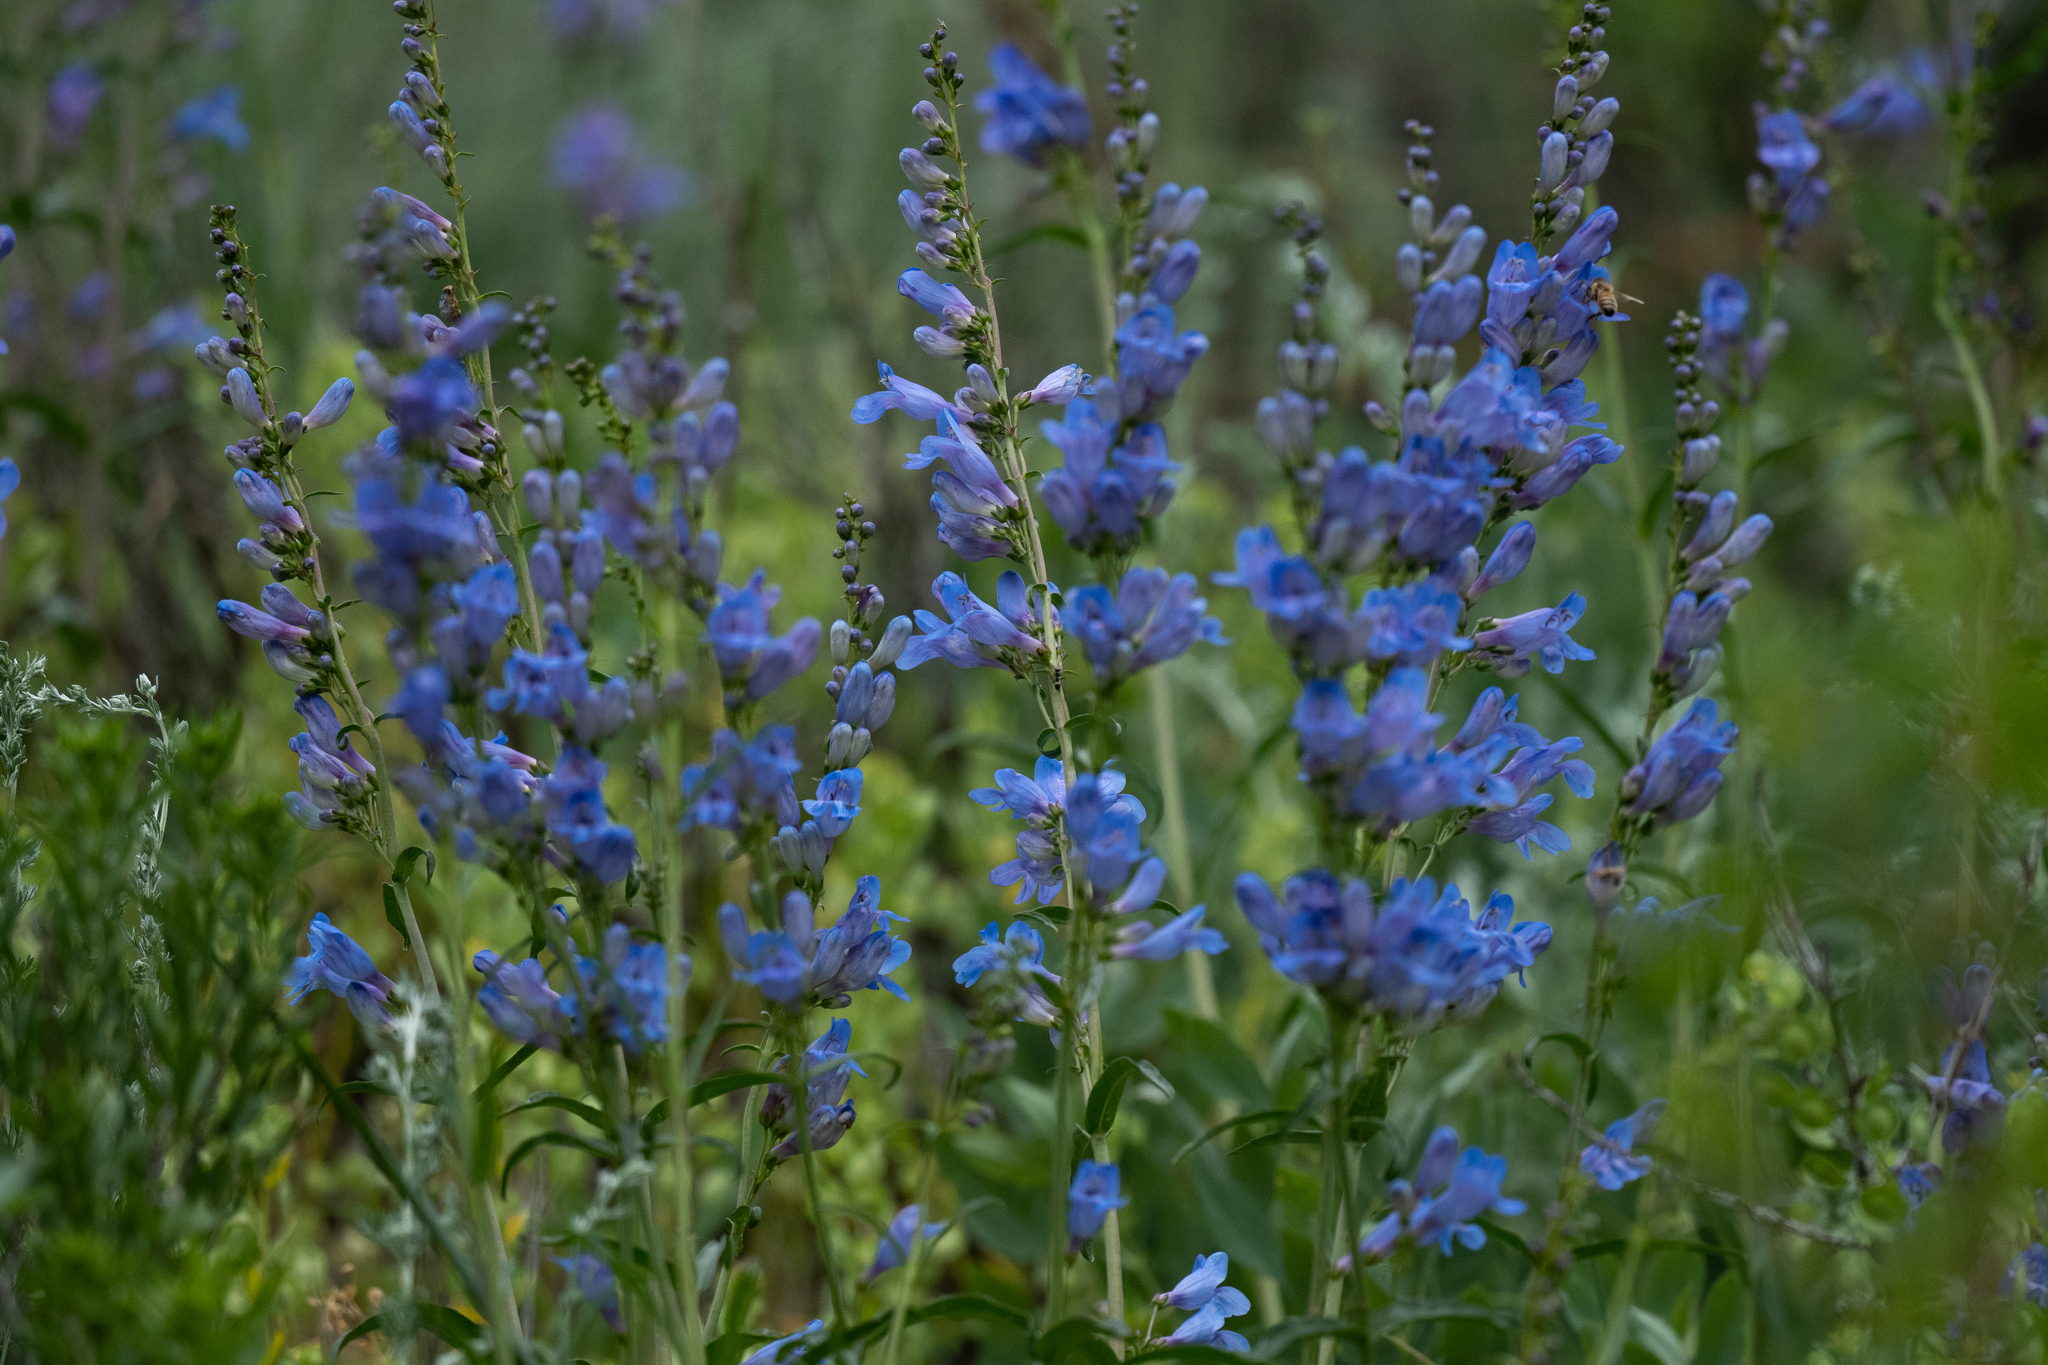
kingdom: Plantae
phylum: Tracheophyta
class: Magnoliopsida
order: Lamiales
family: Plantaginaceae
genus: Penstemon
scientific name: Penstemon strictus
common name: Rocky mountain penstemon
